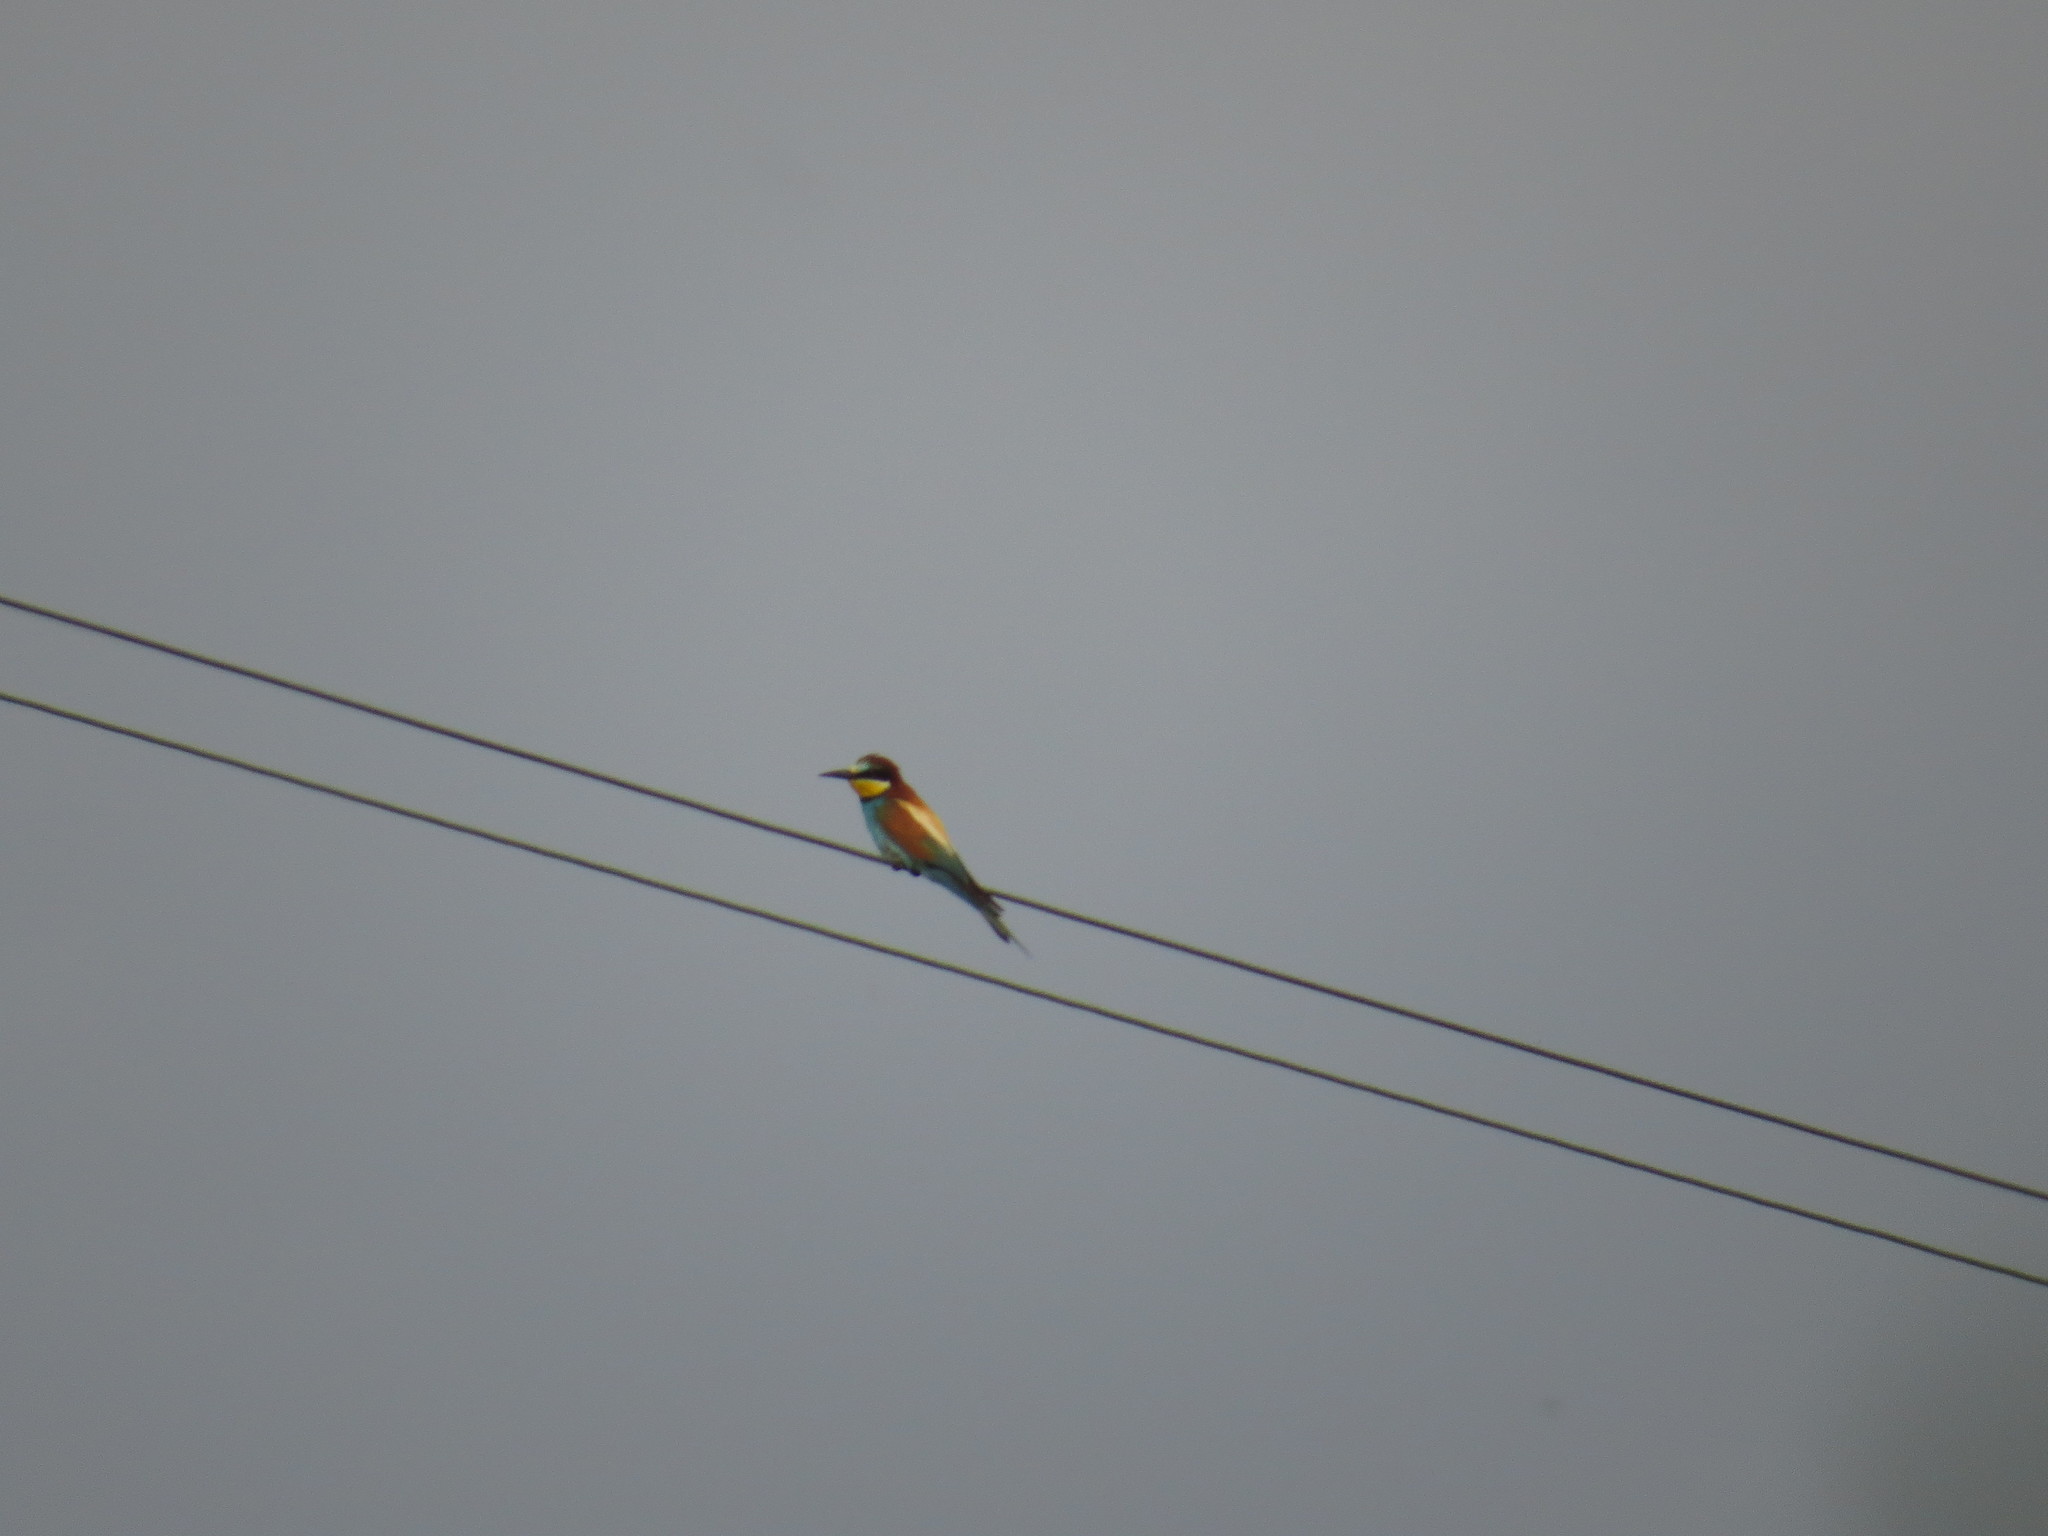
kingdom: Animalia
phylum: Chordata
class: Aves
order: Coraciiformes
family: Meropidae
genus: Merops
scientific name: Merops apiaster
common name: European bee-eater
